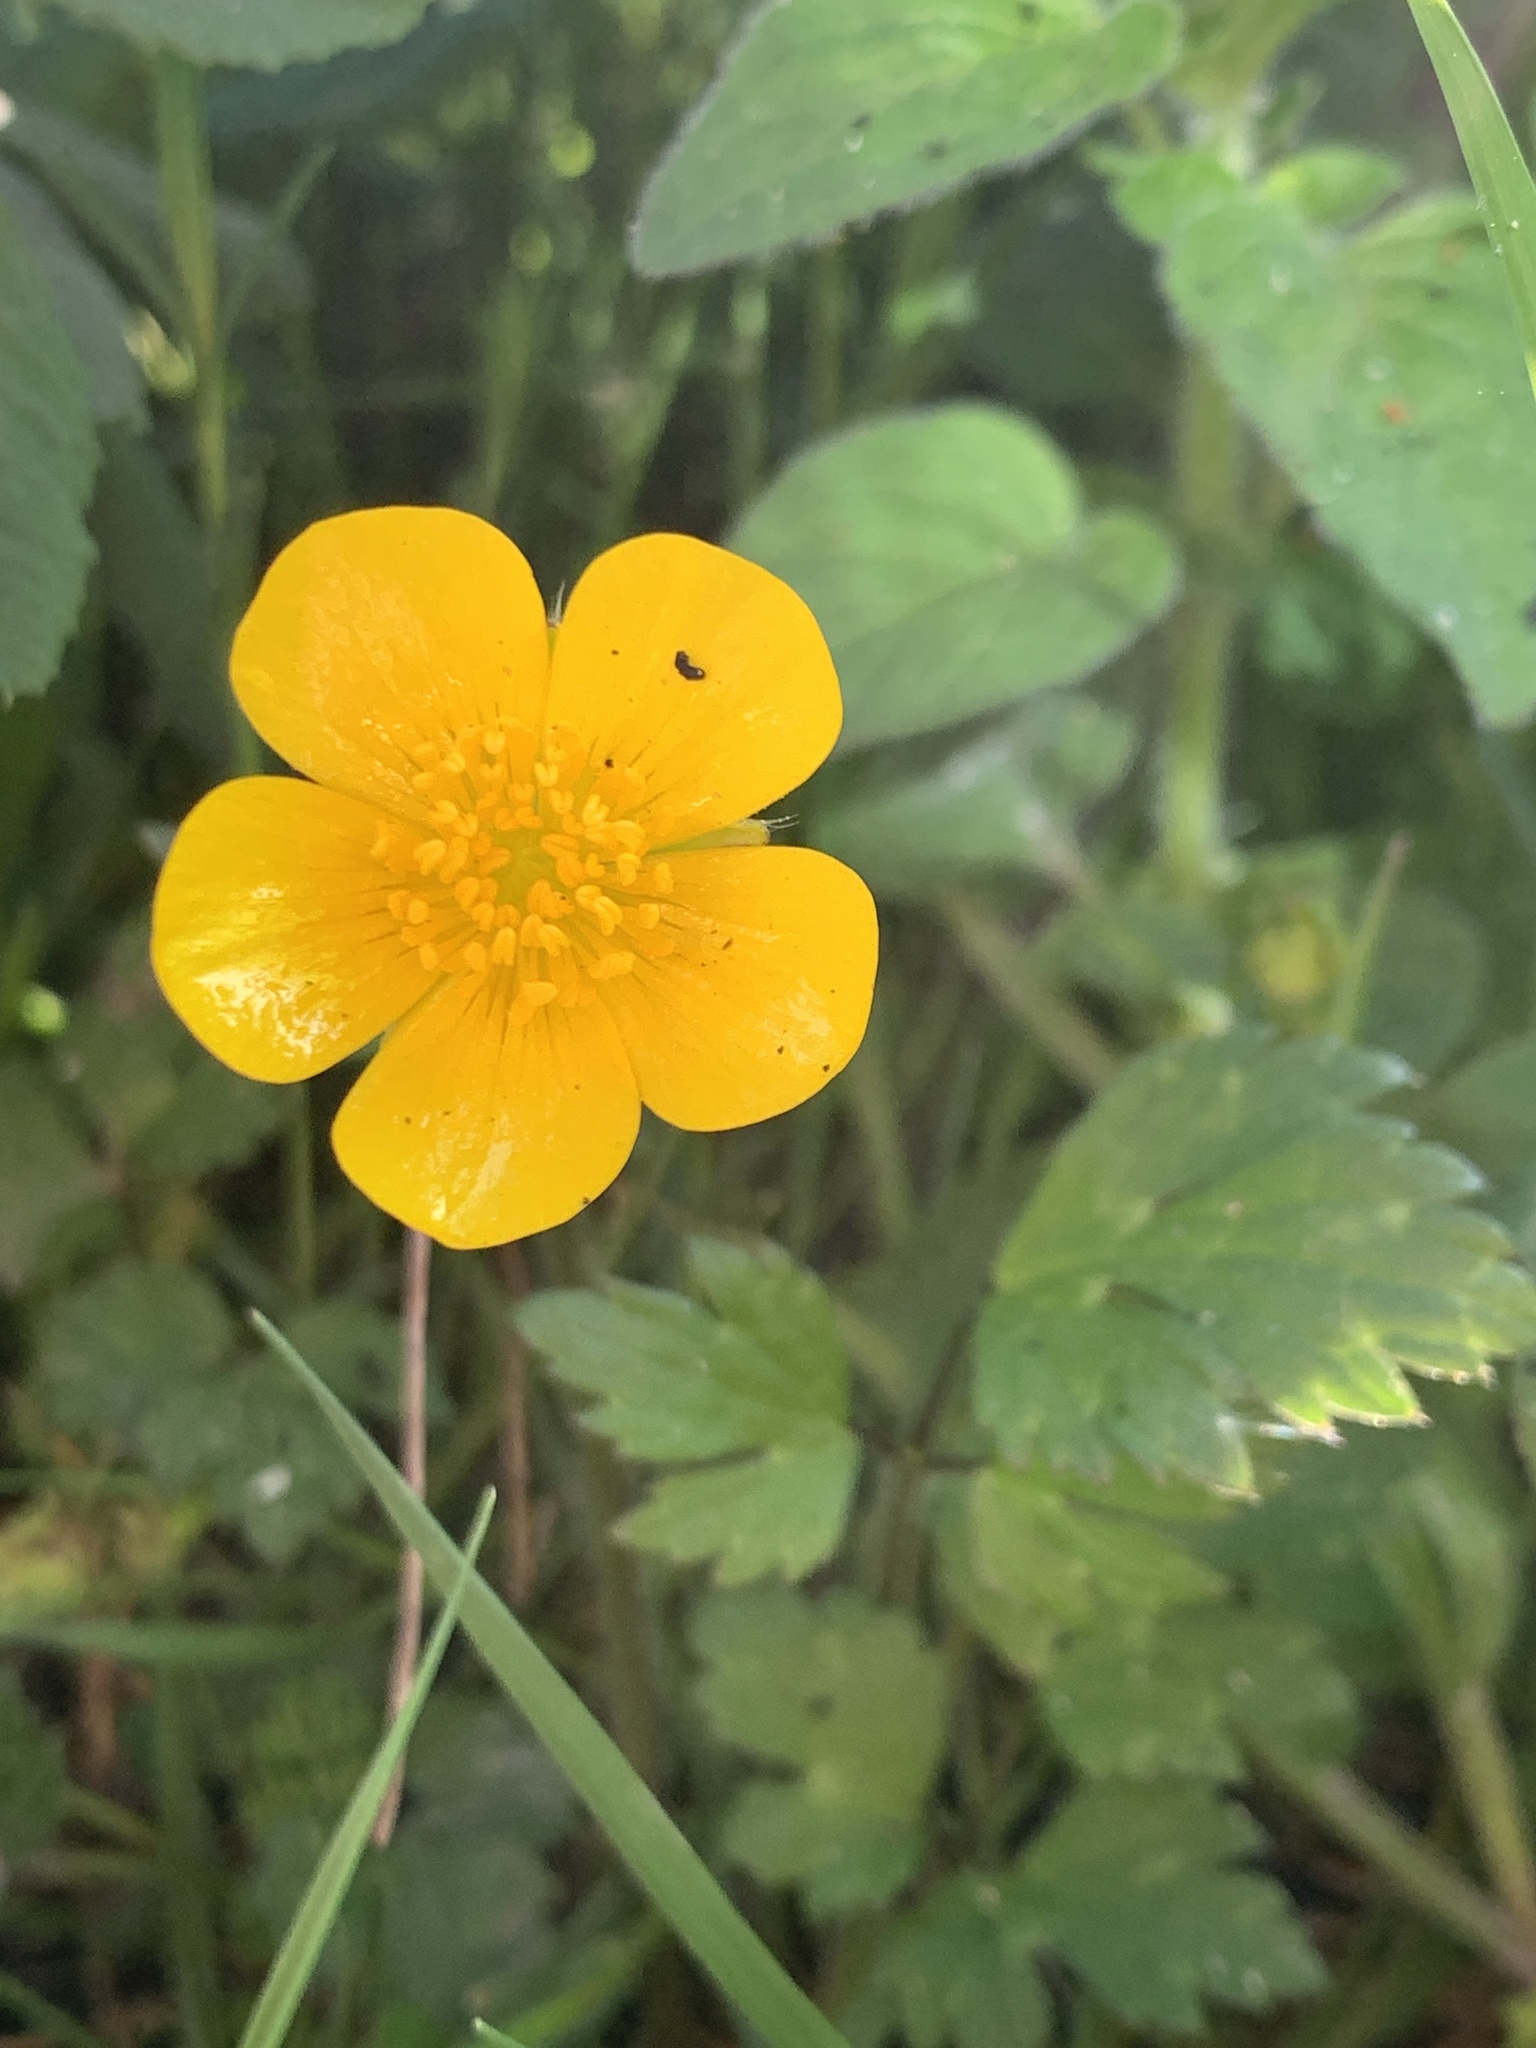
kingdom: Plantae
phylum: Tracheophyta
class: Magnoliopsida
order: Ranunculales
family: Ranunculaceae
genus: Ranunculus
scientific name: Ranunculus repens
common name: Creeping buttercup
